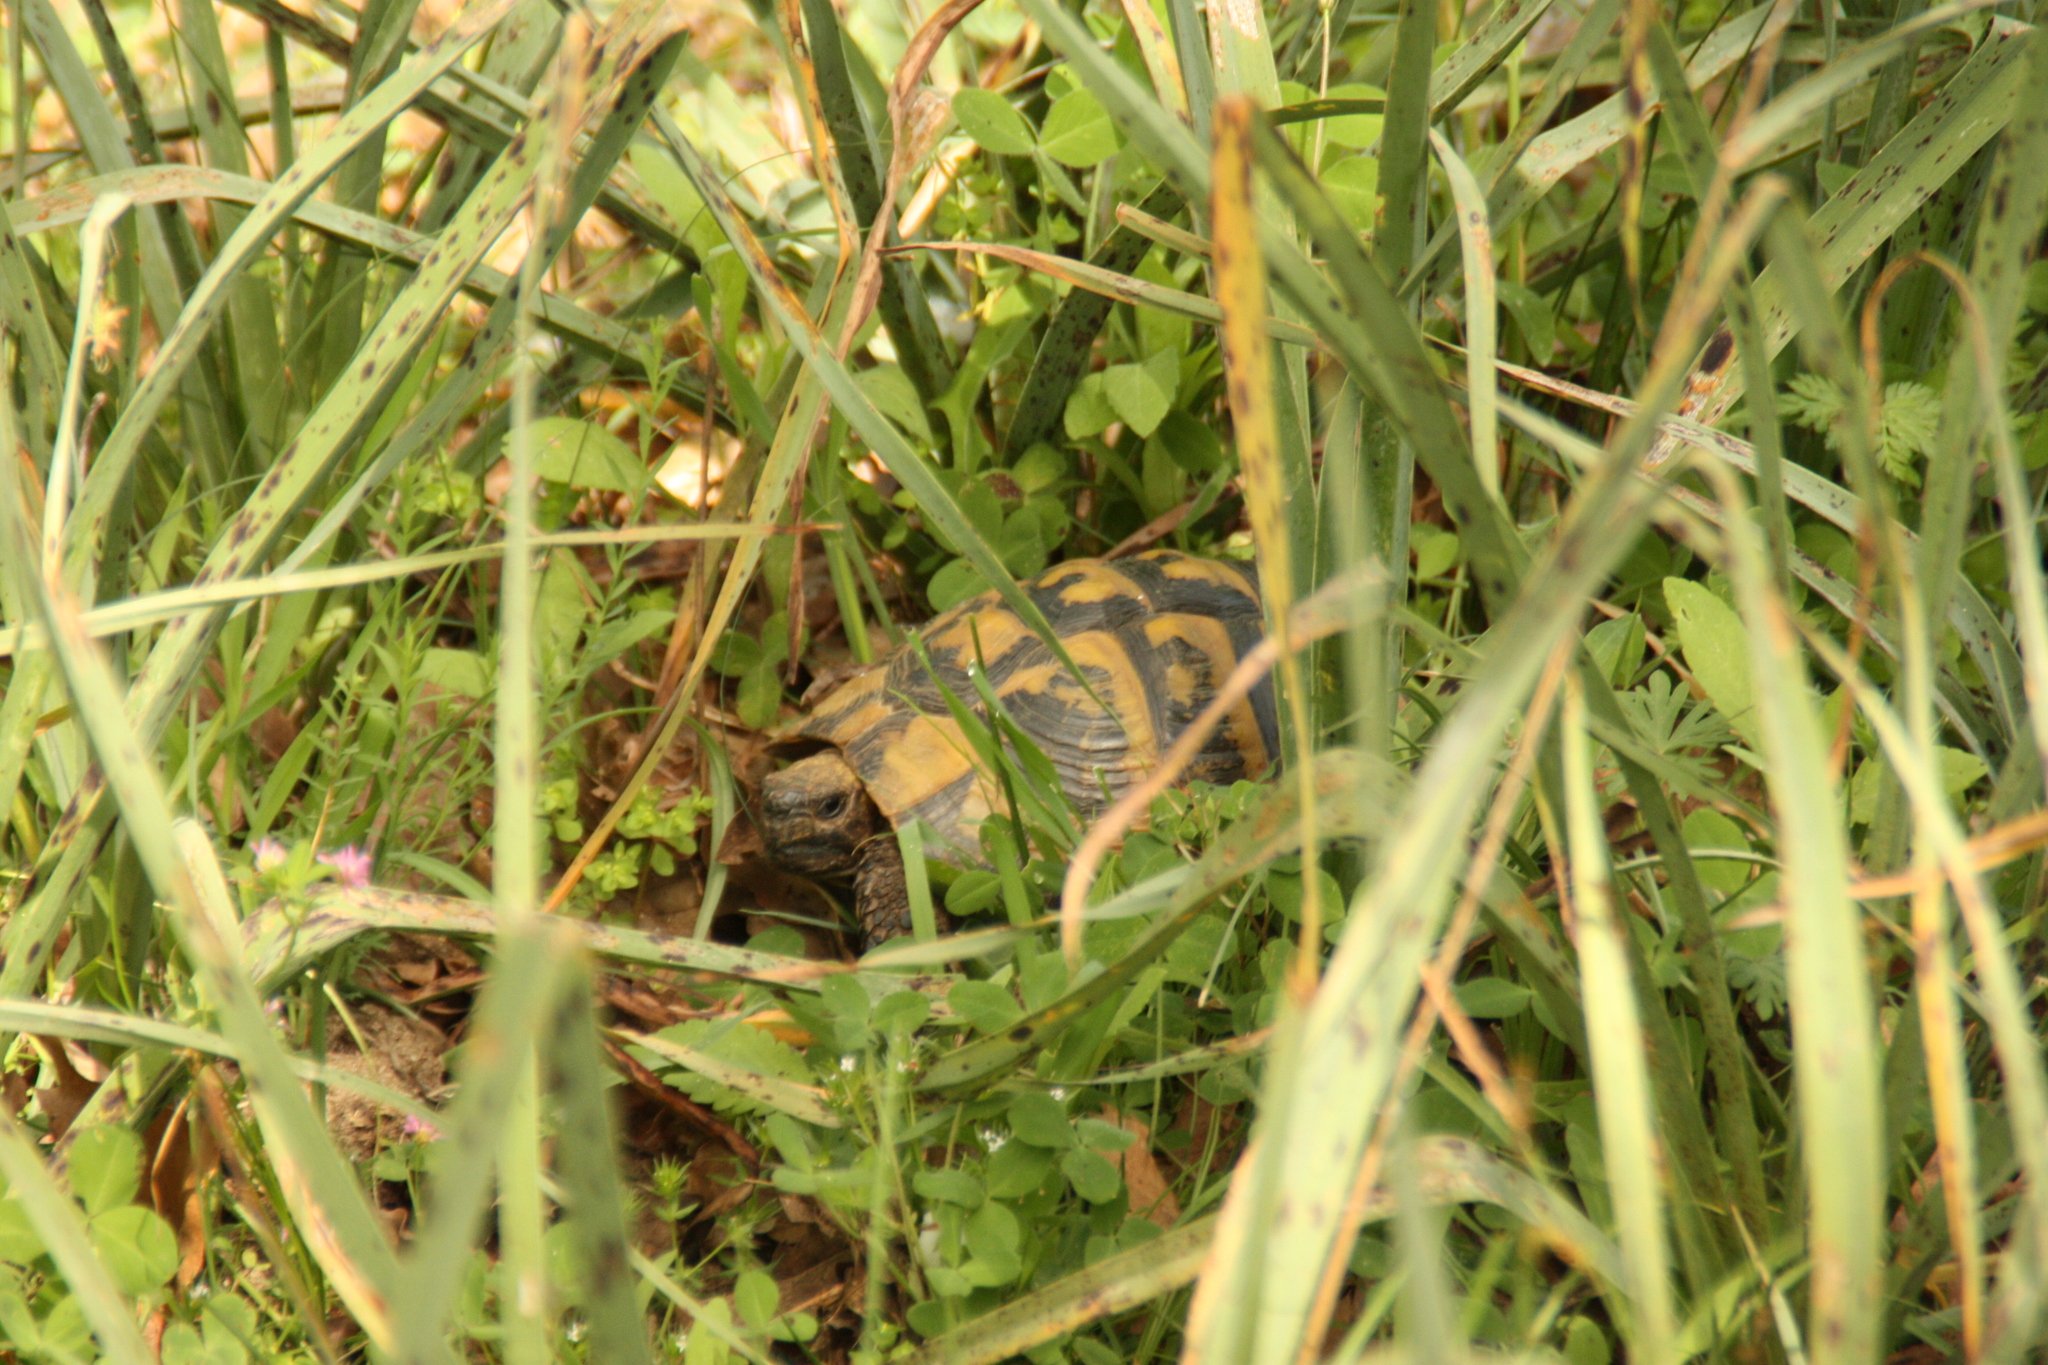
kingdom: Animalia
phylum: Chordata
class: Testudines
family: Testudinidae
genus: Testudo
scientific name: Testudo hermanni
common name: Hermann's tortoise
